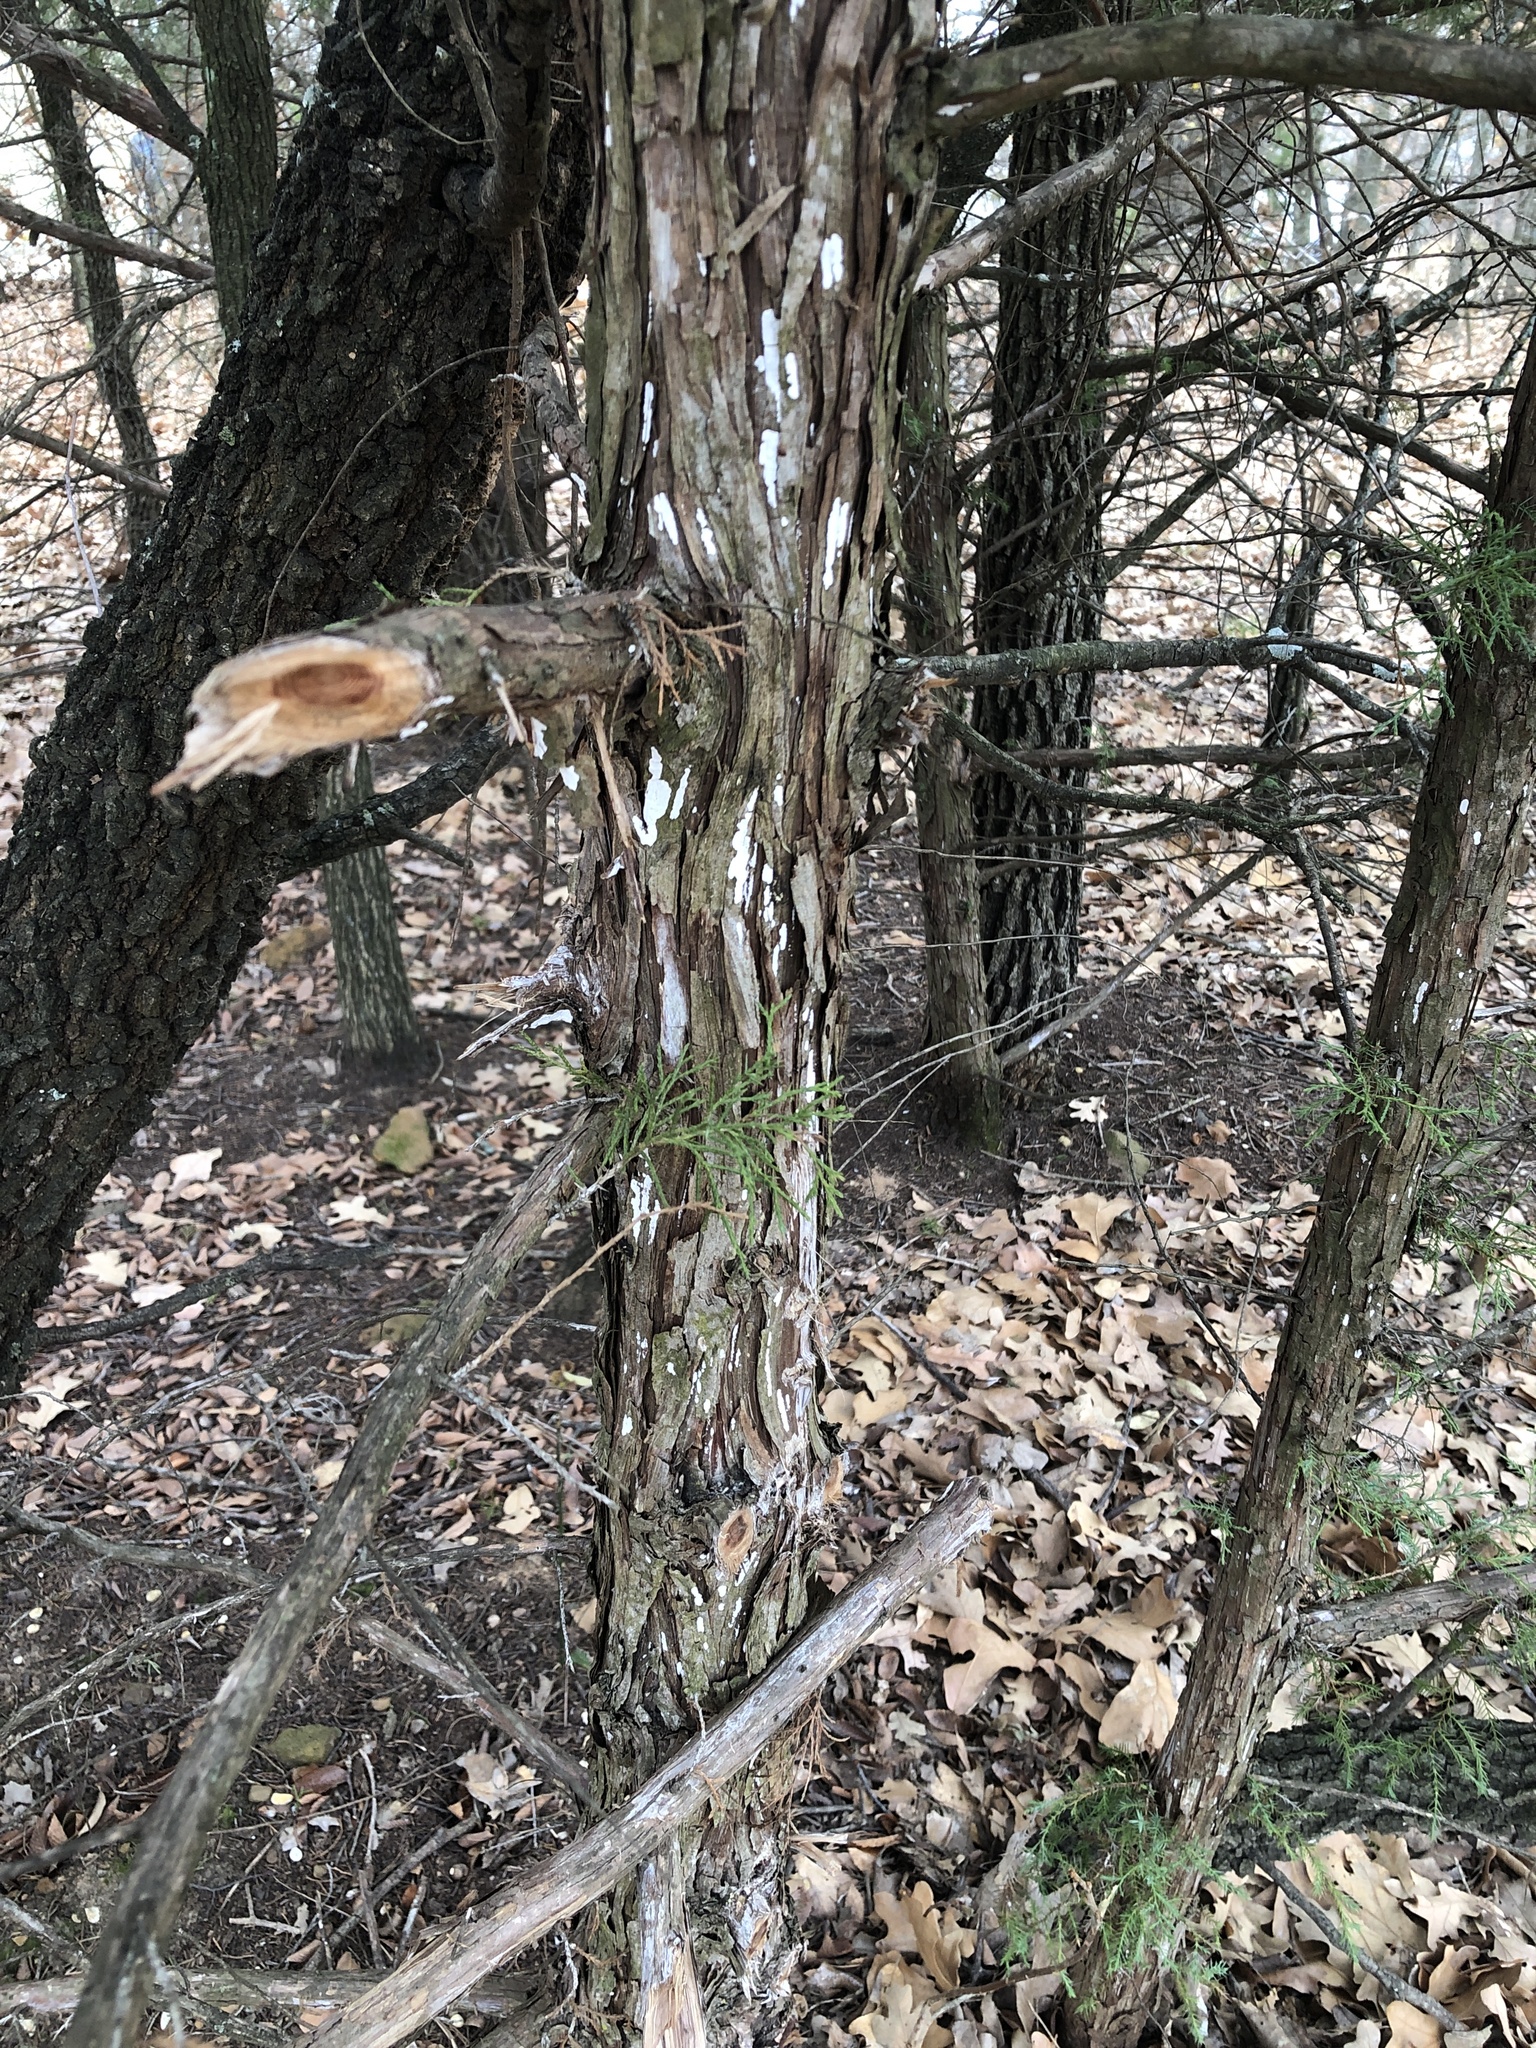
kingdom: Fungi
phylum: Basidiomycota
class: Agaricomycetes
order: Agaricales
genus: Dendrothele
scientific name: Dendrothele nivosa
